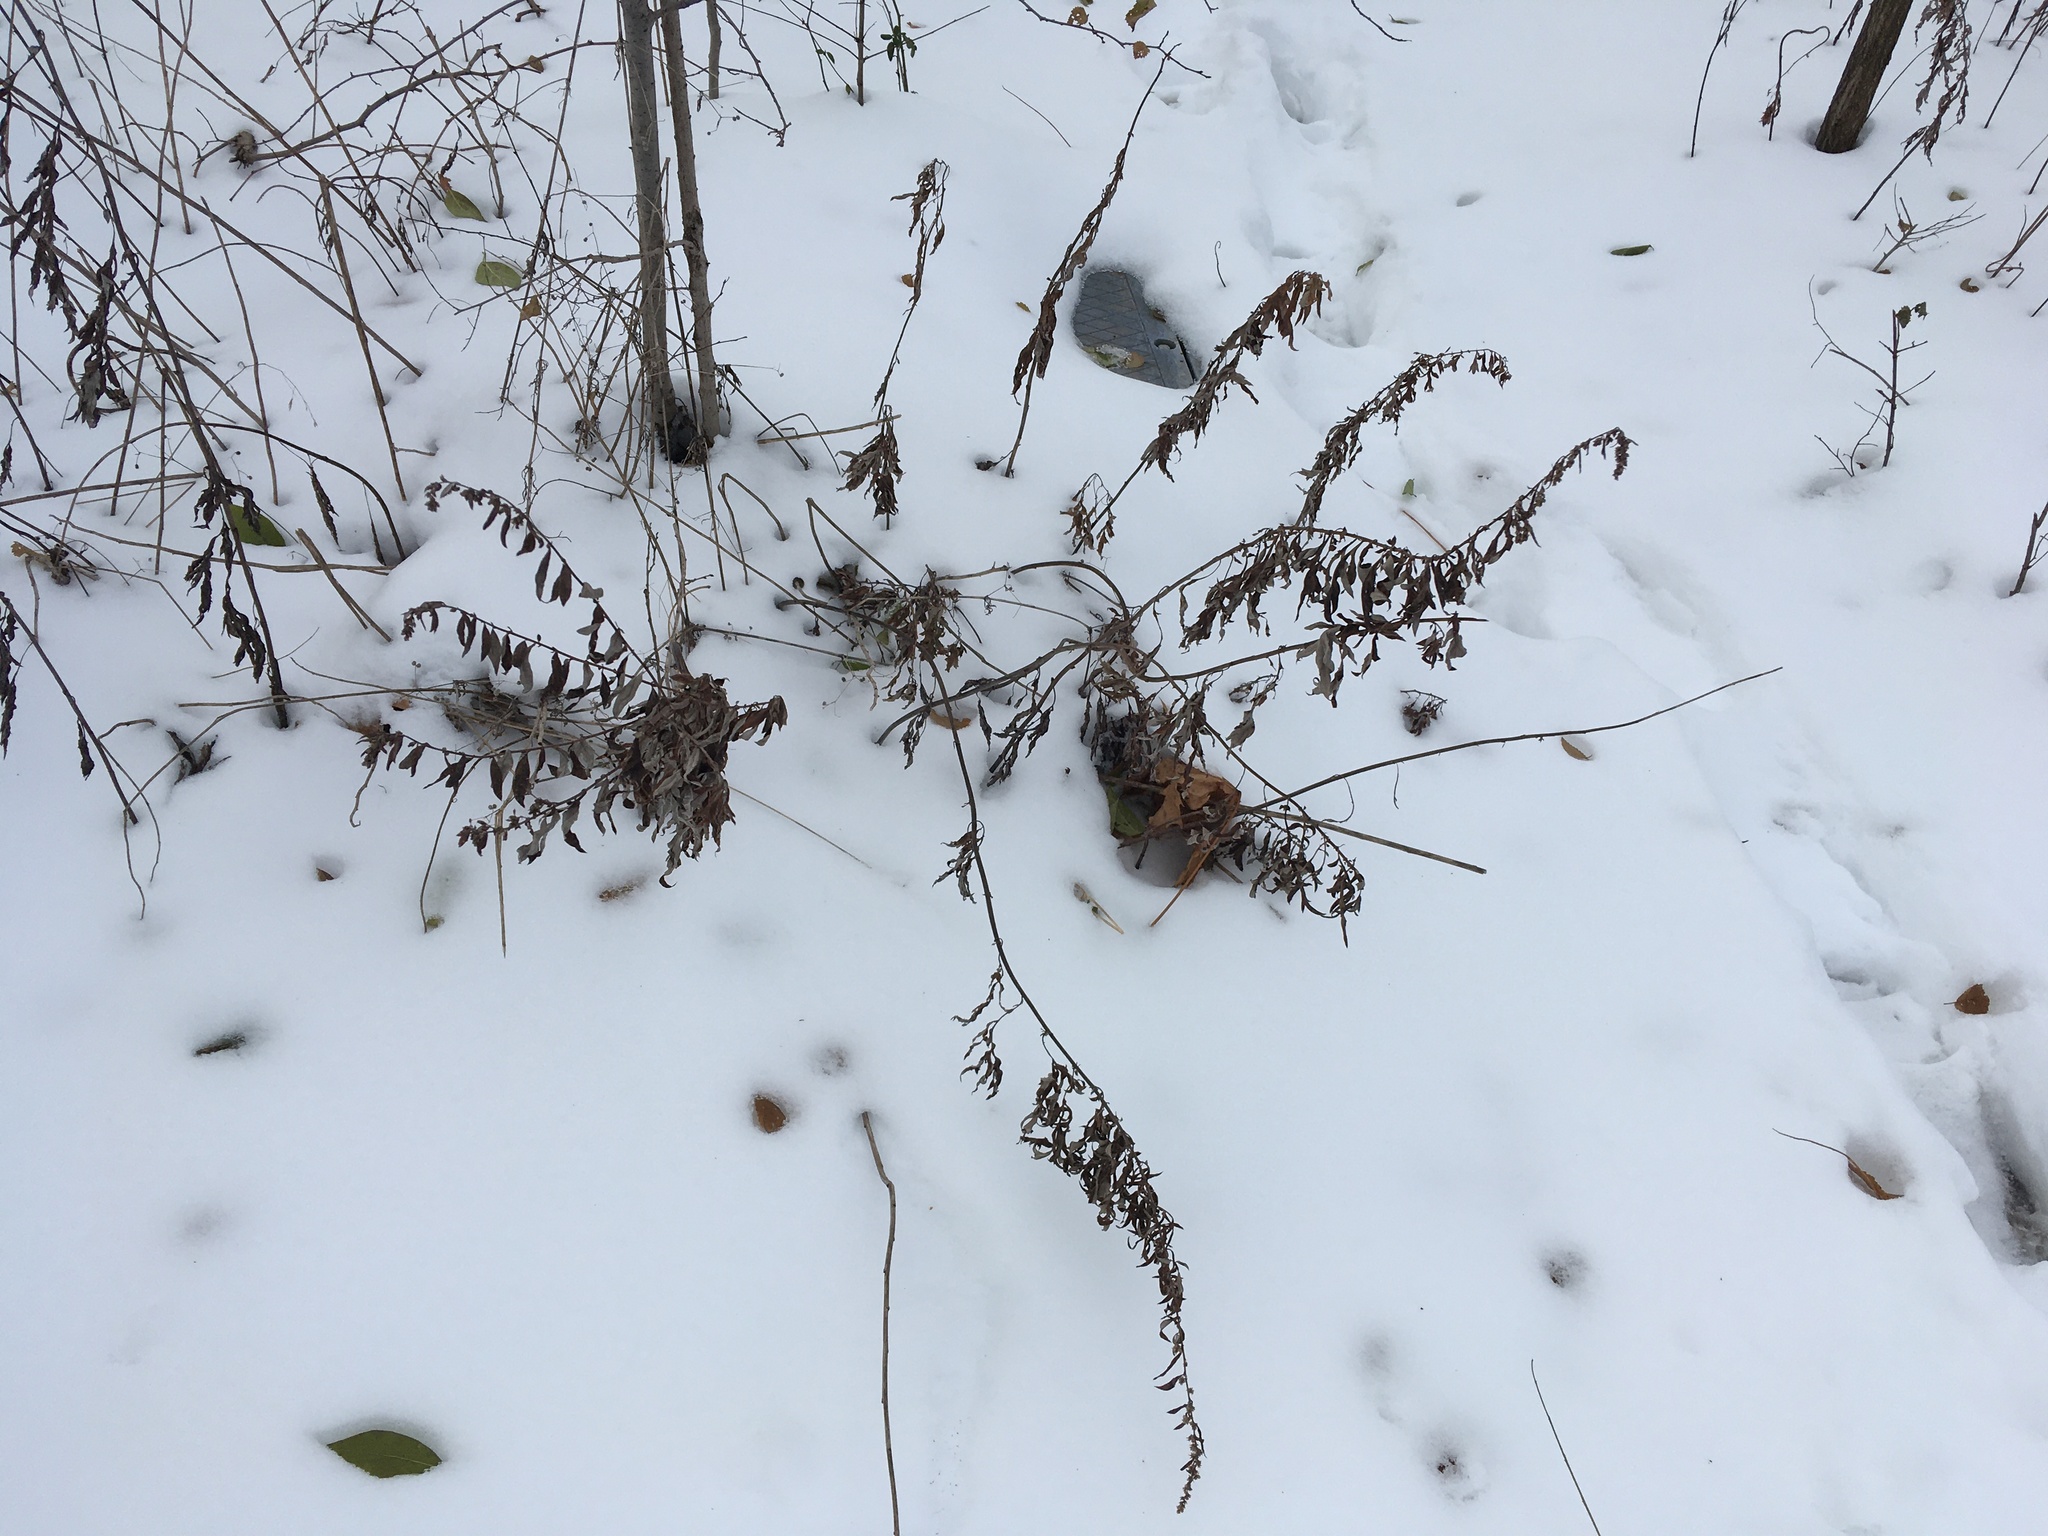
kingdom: Plantae
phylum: Tracheophyta
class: Magnoliopsida
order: Asterales
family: Asteraceae
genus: Artemisia
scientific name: Artemisia vulgaris
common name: Mugwort
